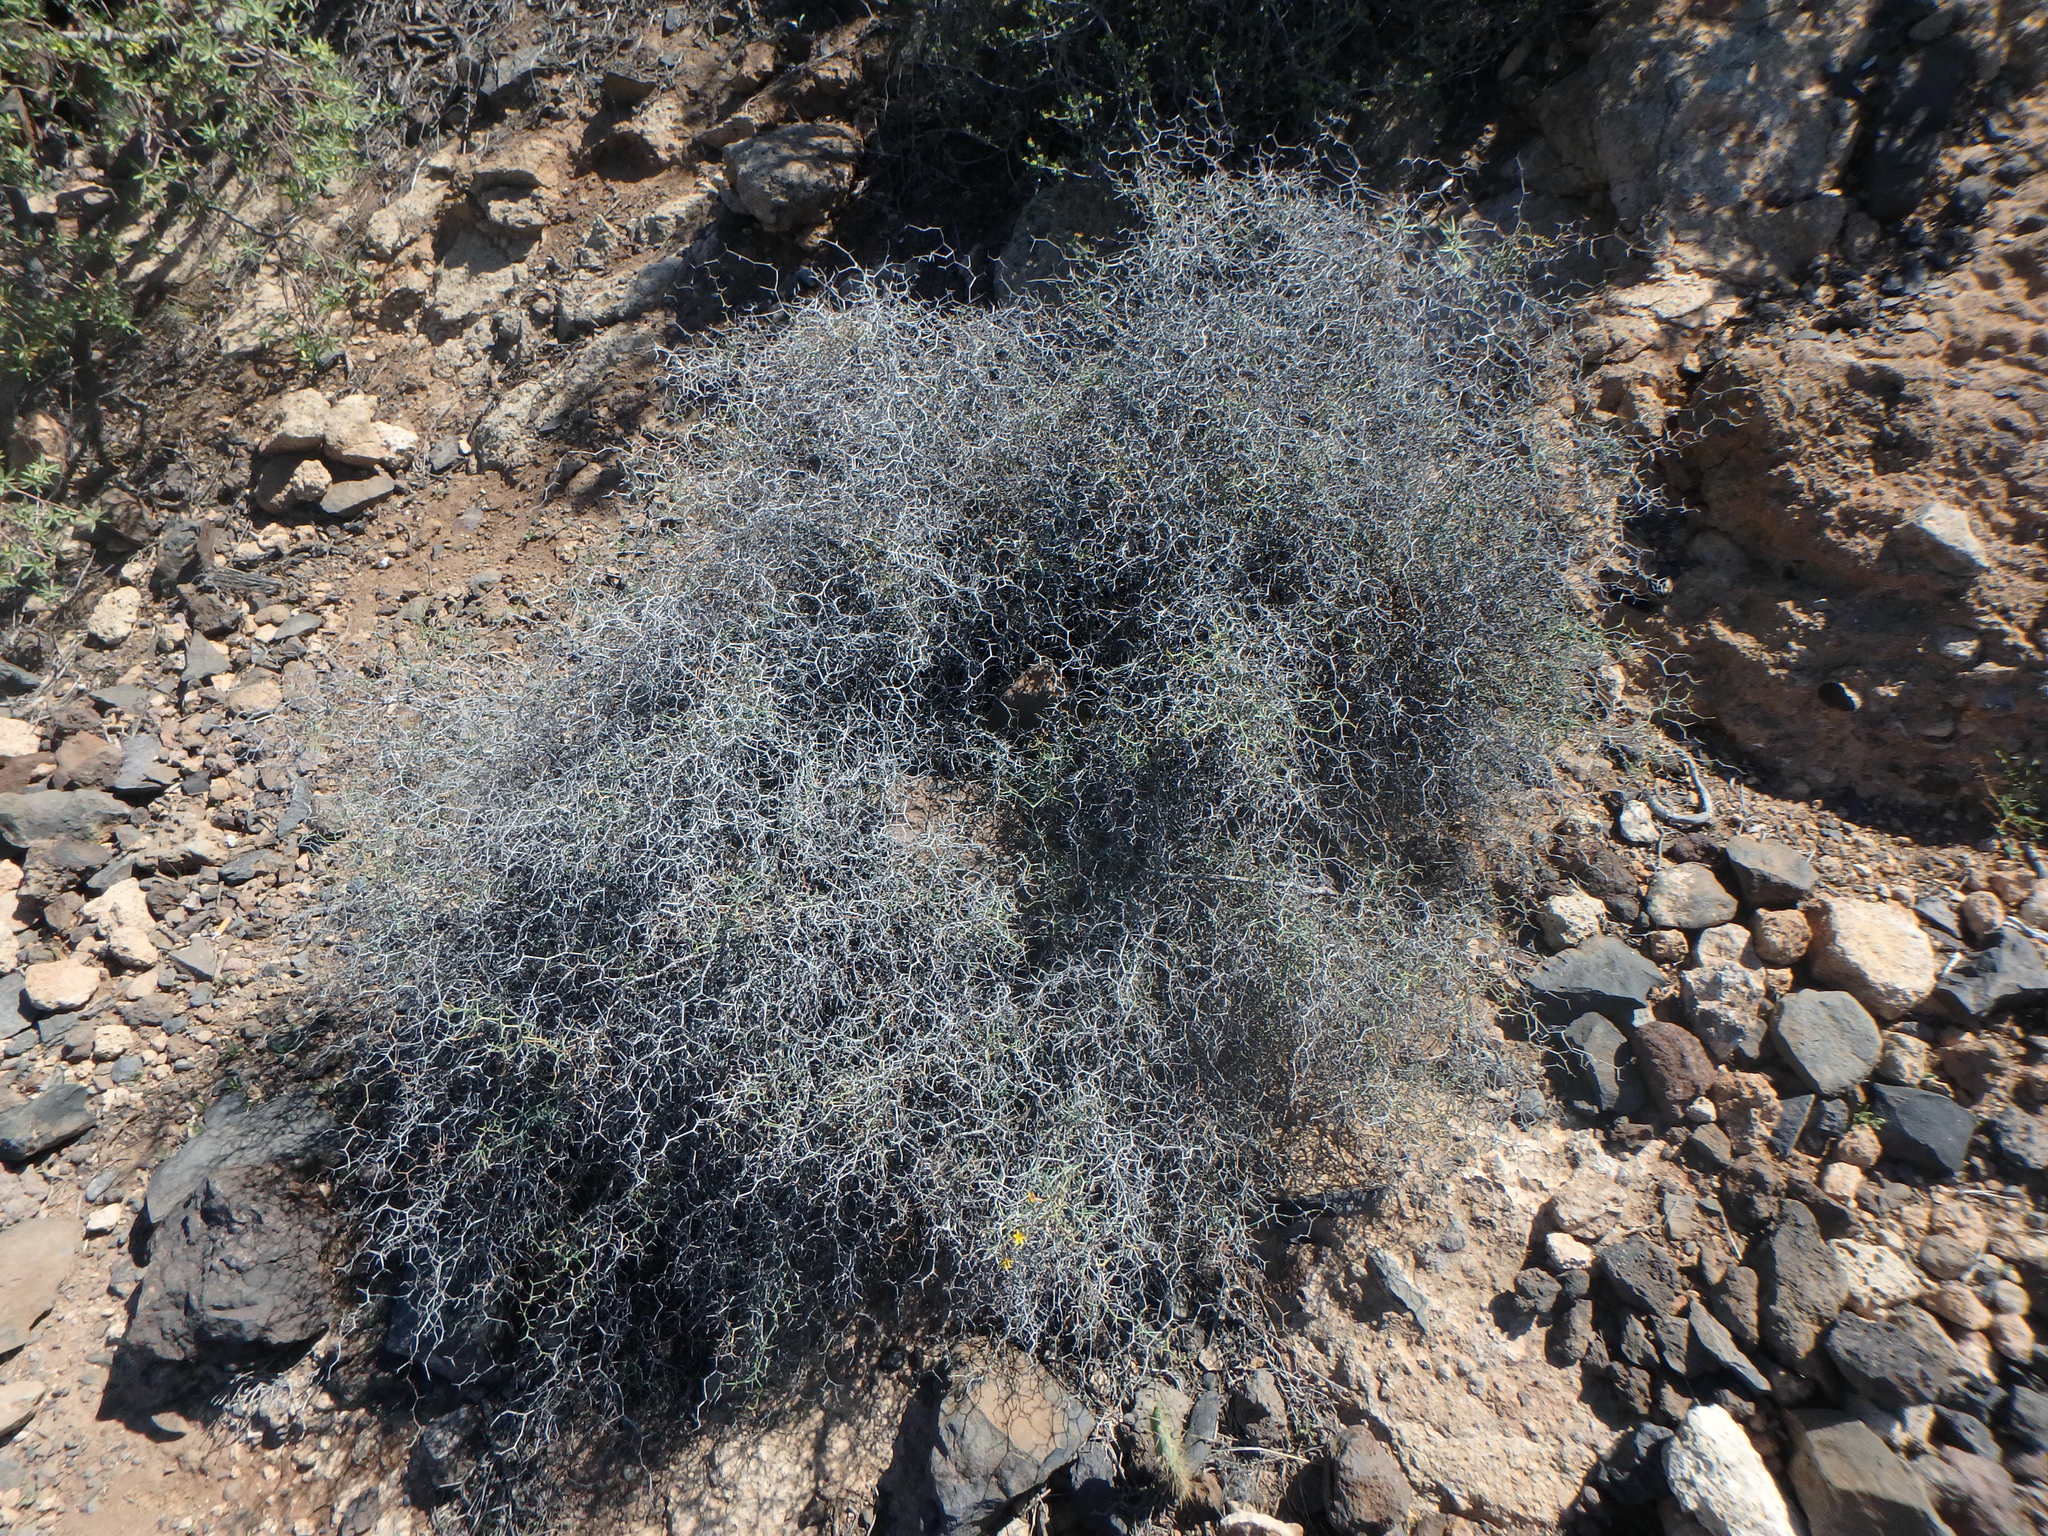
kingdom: Plantae
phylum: Tracheophyta
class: Magnoliopsida
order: Asterales
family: Asteraceae
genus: Launaea
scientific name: Launaea arborescens
